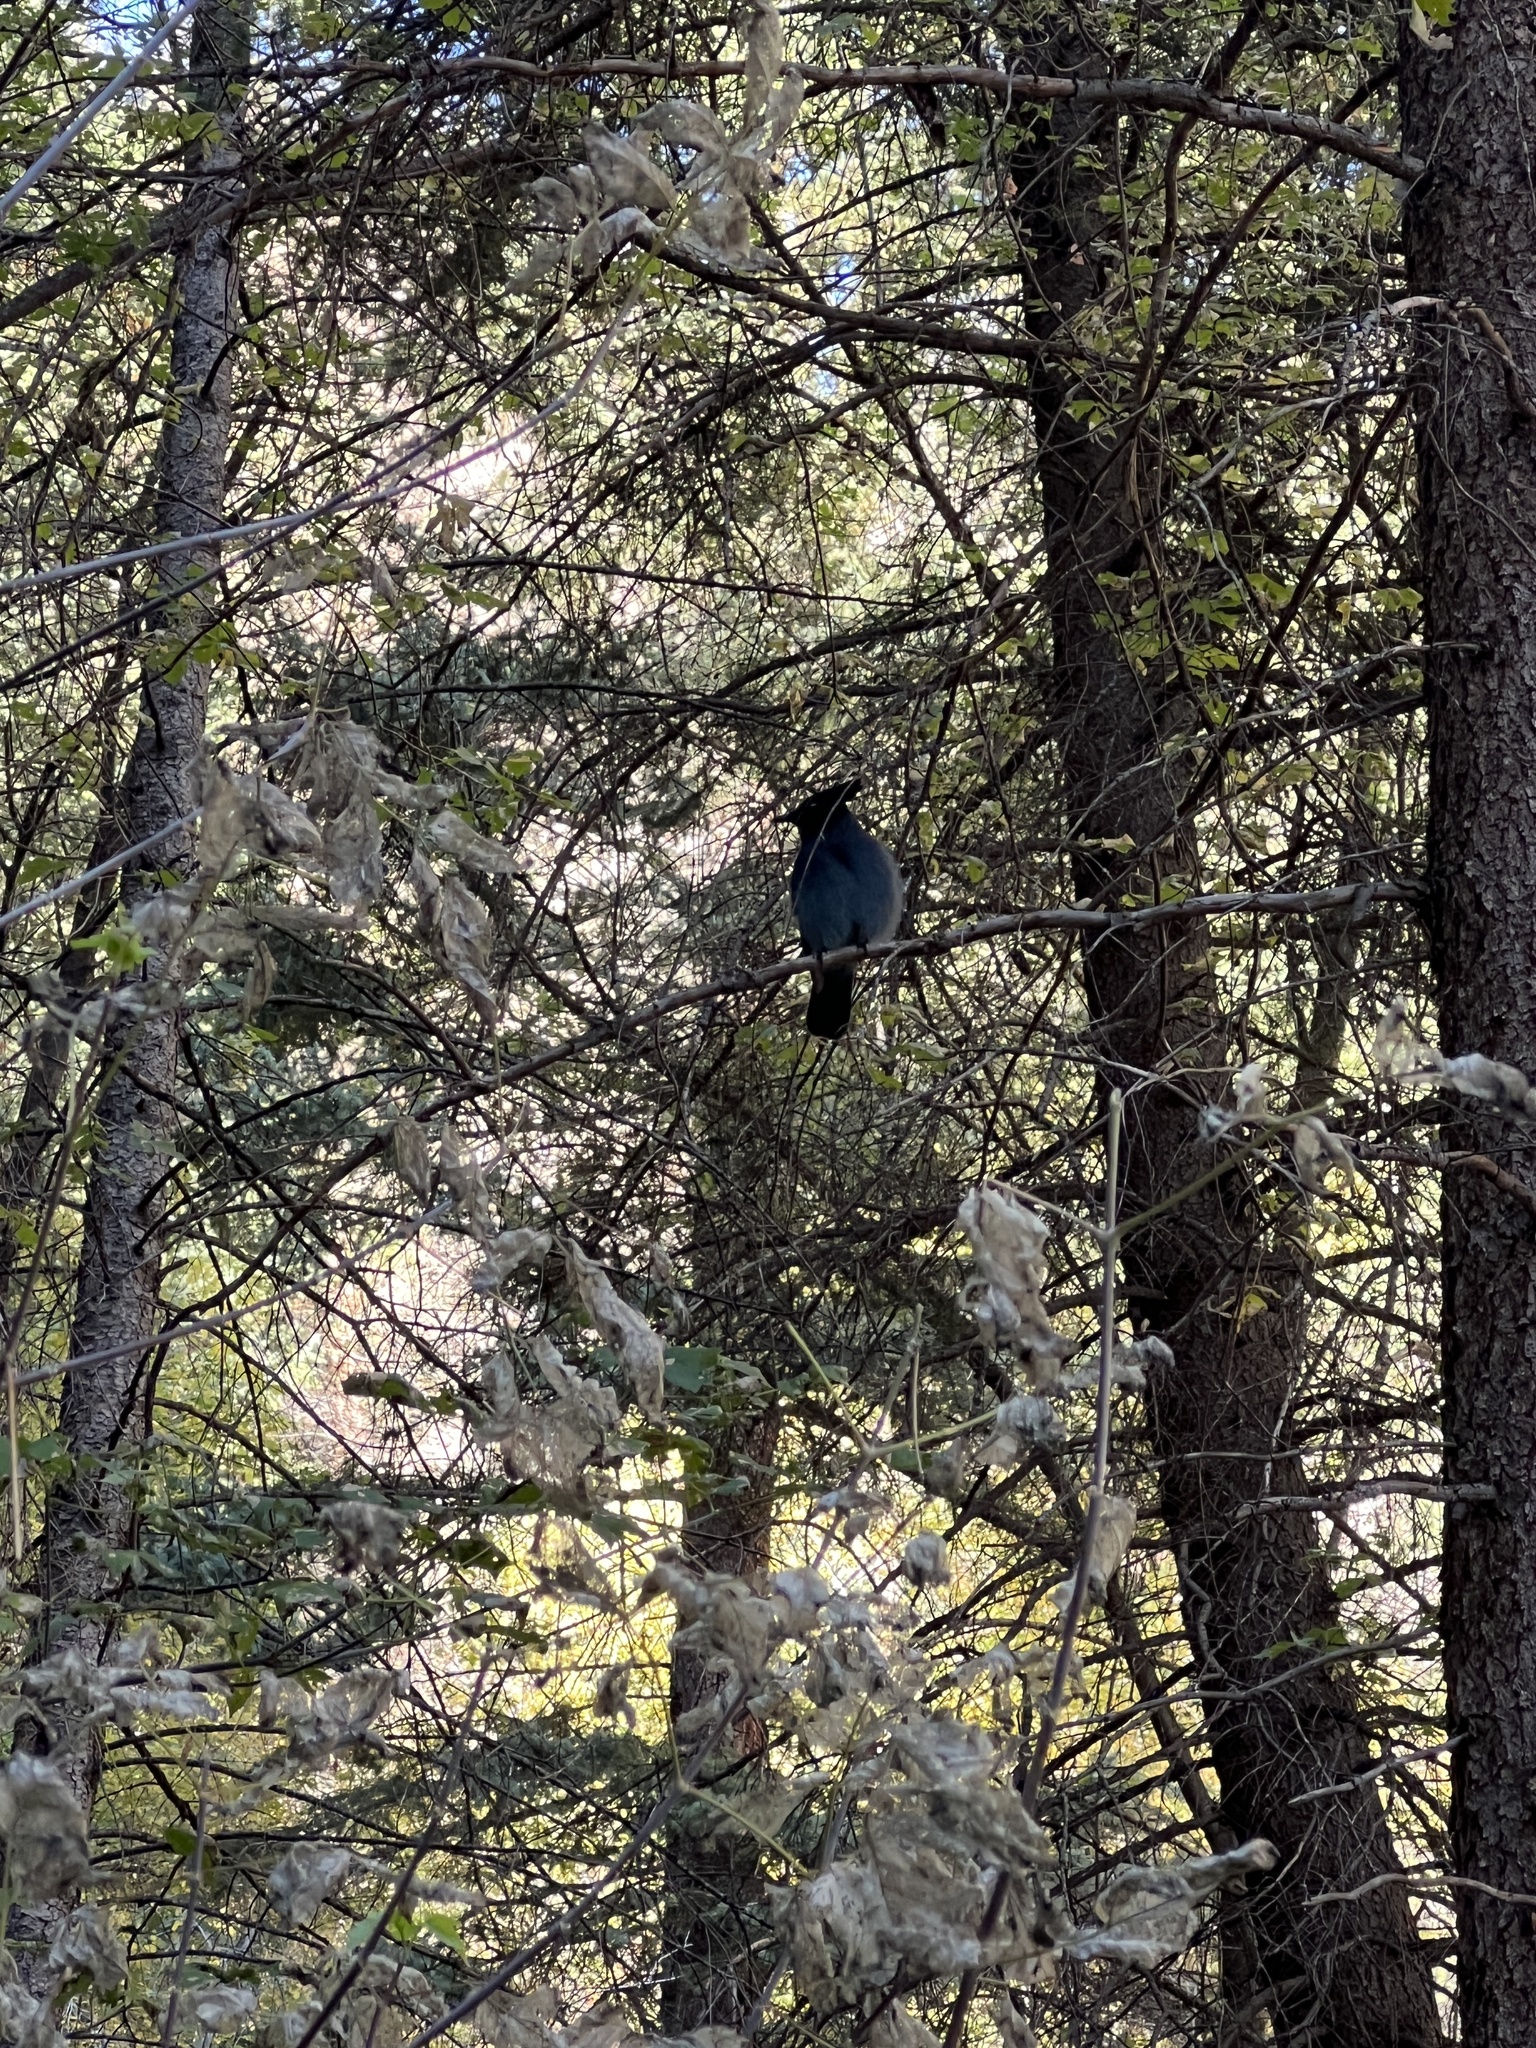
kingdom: Animalia
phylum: Chordata
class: Aves
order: Passeriformes
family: Corvidae
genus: Cyanocitta
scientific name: Cyanocitta stelleri
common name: Steller's jay
